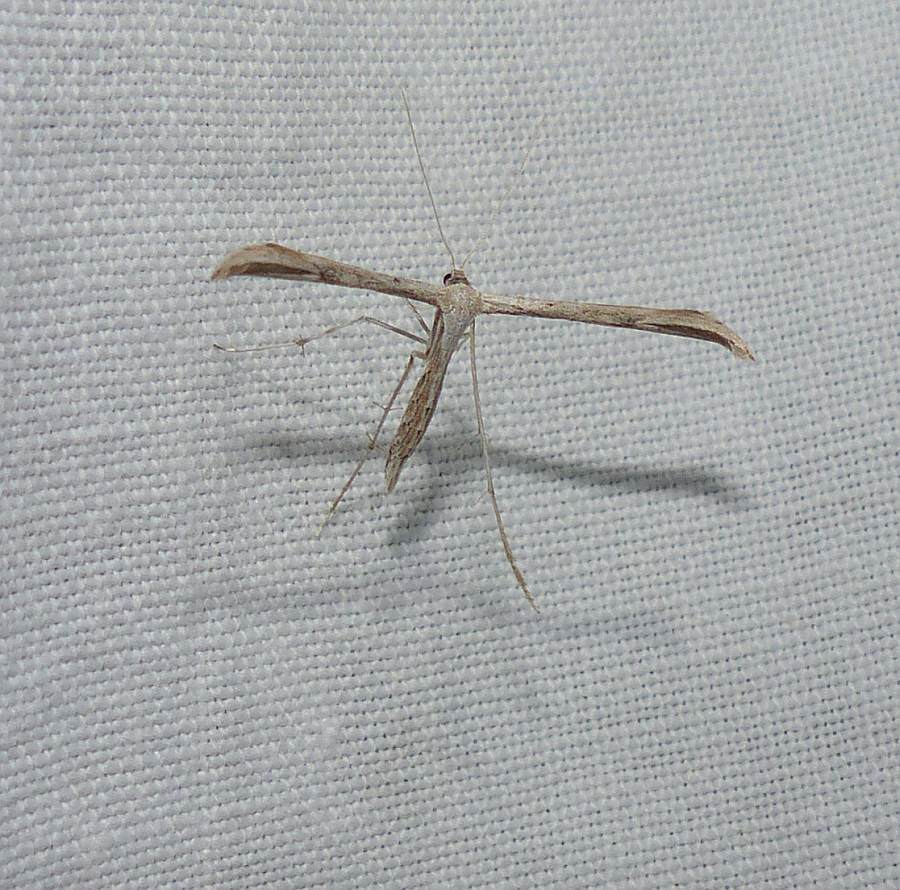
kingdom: Animalia
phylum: Arthropoda
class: Insecta
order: Lepidoptera
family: Pterophoridae
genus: Emmelina
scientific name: Emmelina monodactyla
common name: Common plume
